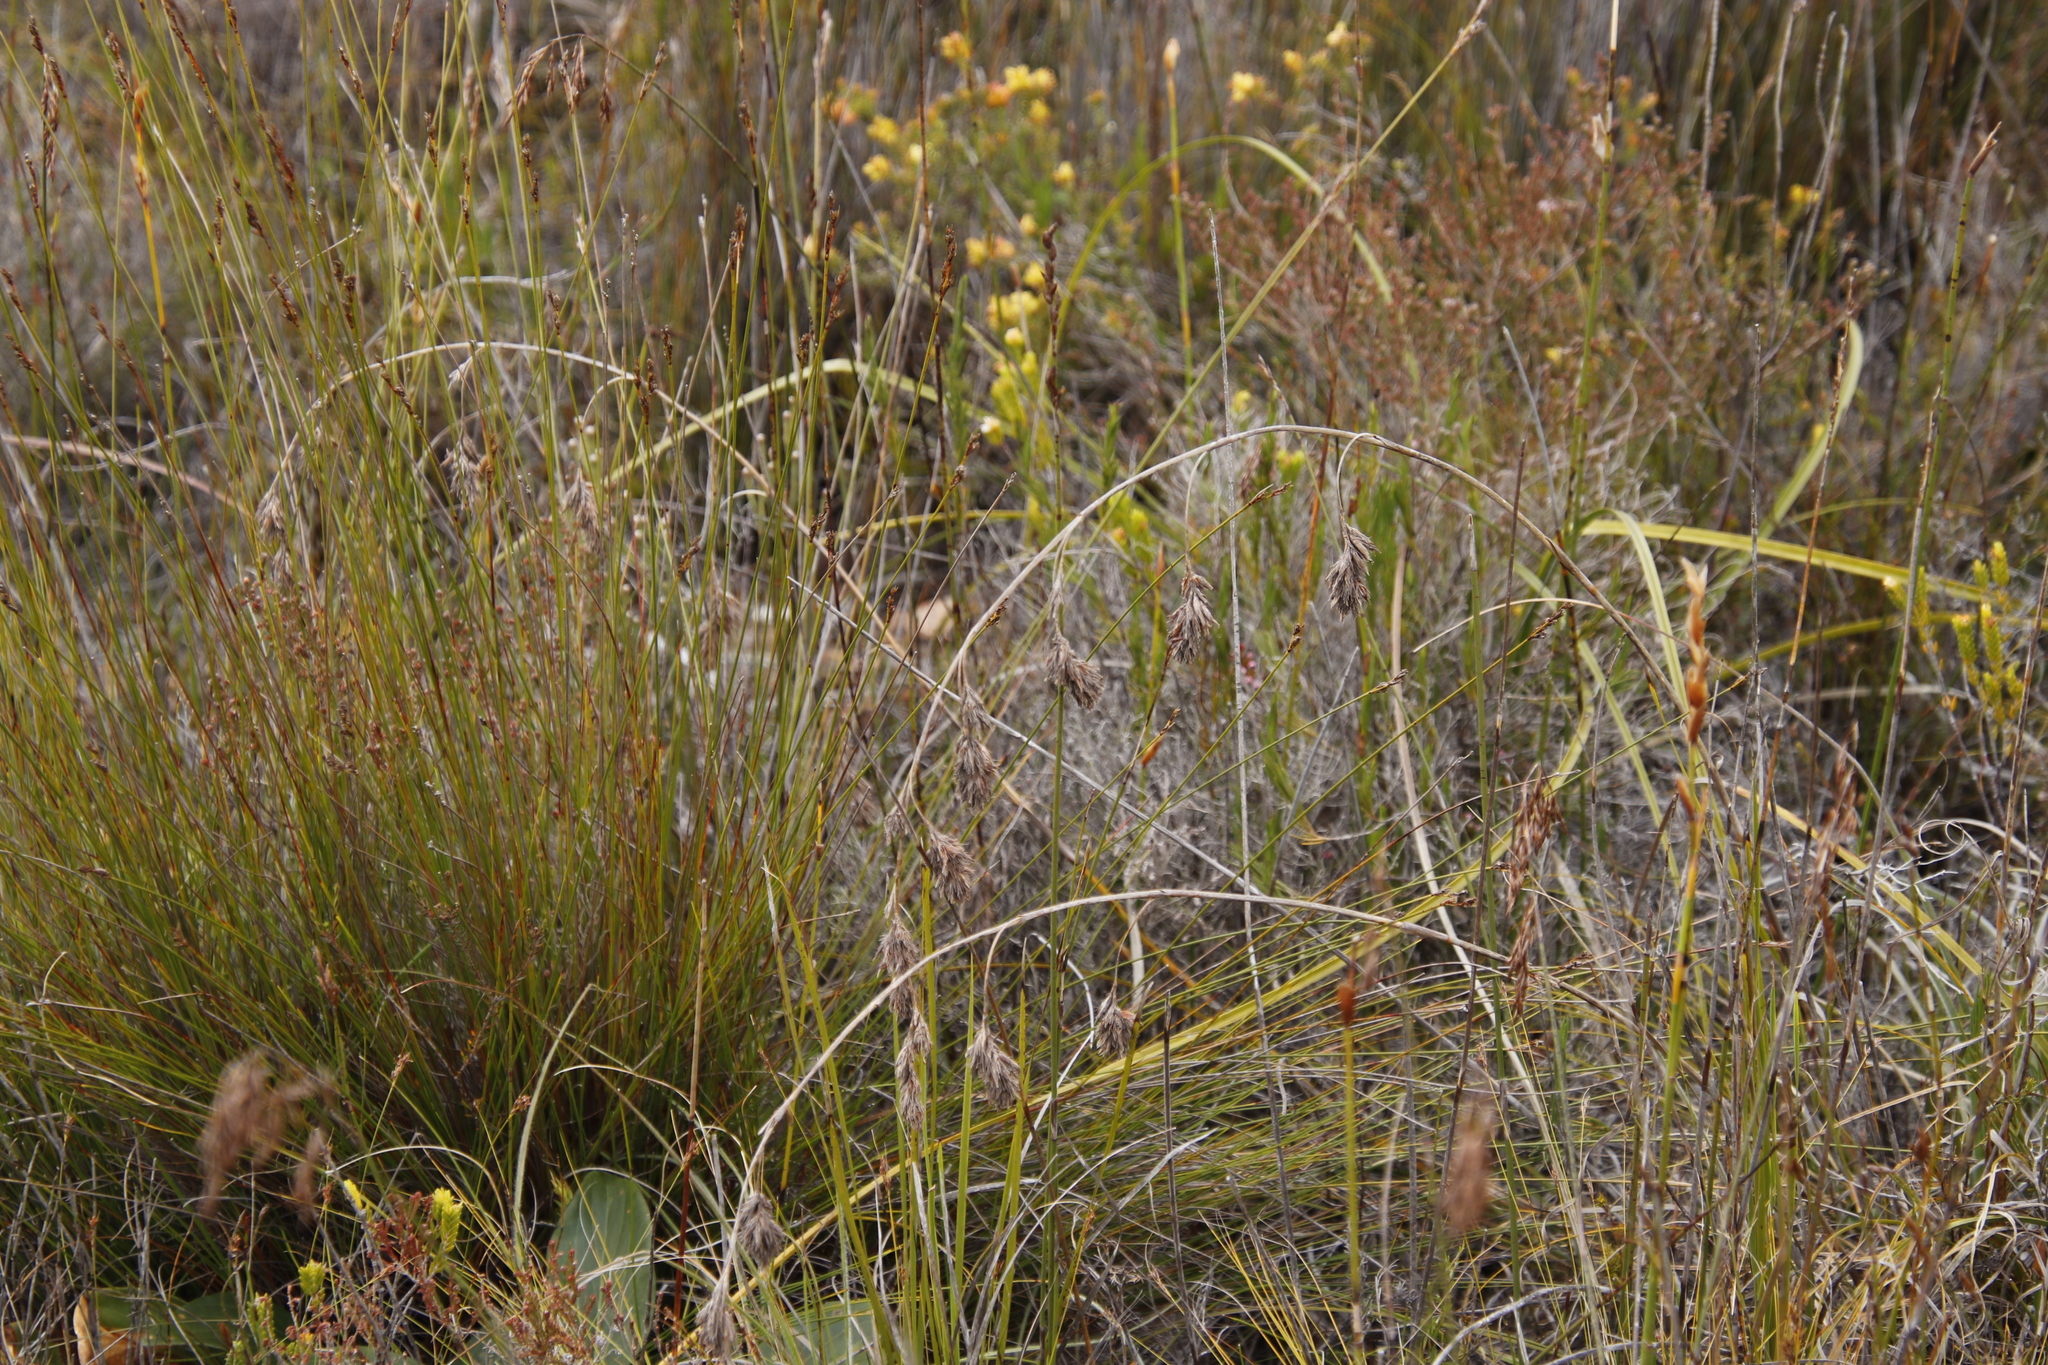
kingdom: Plantae
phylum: Tracheophyta
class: Liliopsida
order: Poales
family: Cyperaceae
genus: Tetraria
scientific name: Tetraria bromoides
